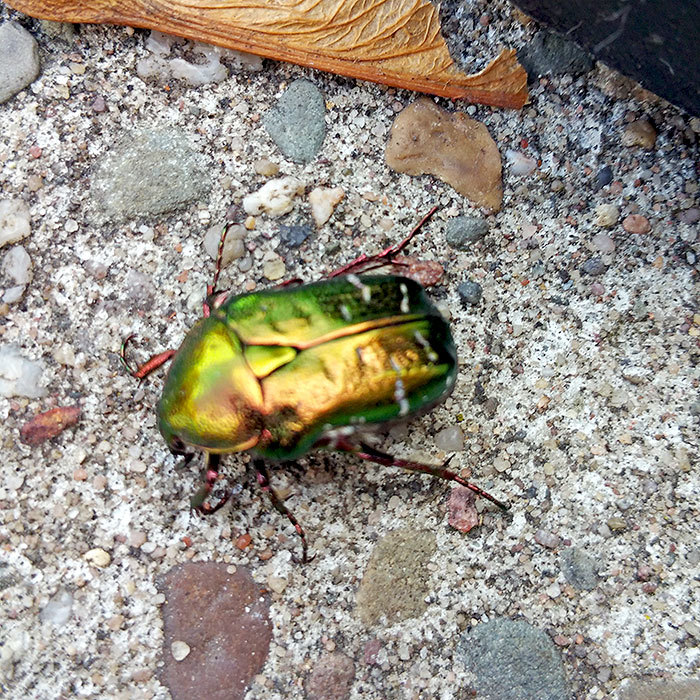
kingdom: Animalia
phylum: Arthropoda
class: Insecta
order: Coleoptera
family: Scarabaeidae
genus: Cetonia
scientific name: Cetonia aurata
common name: Rose chafer
